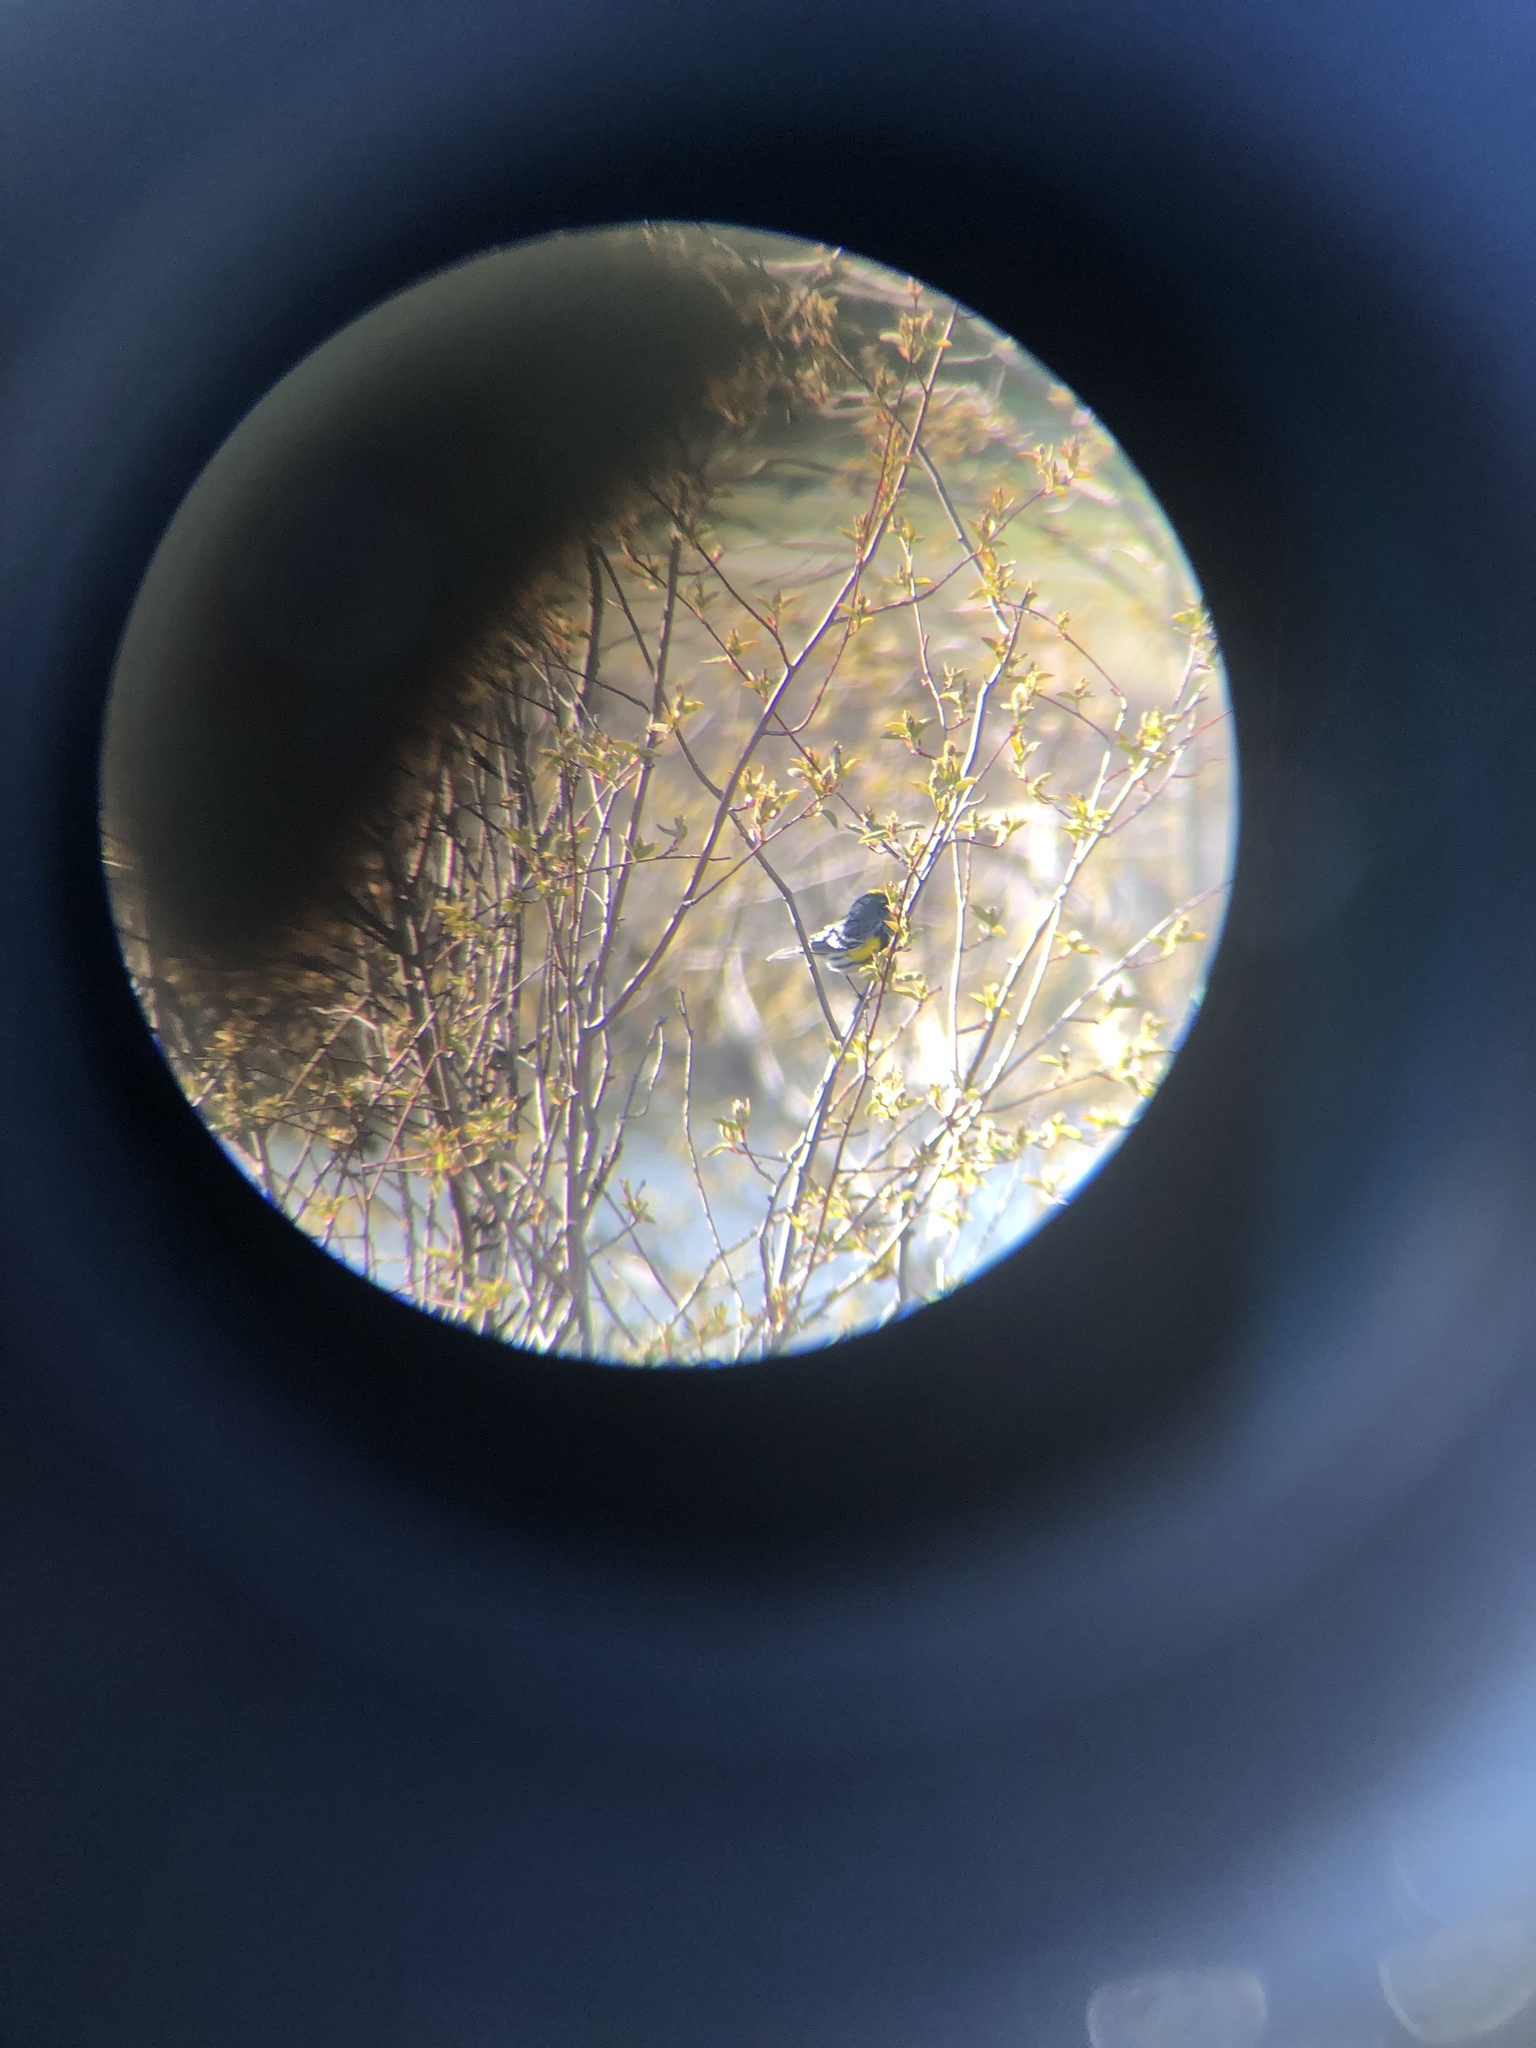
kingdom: Animalia
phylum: Chordata
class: Aves
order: Passeriformes
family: Parulidae
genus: Setophaga
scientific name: Setophaga auduboni
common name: Audubon's warbler
